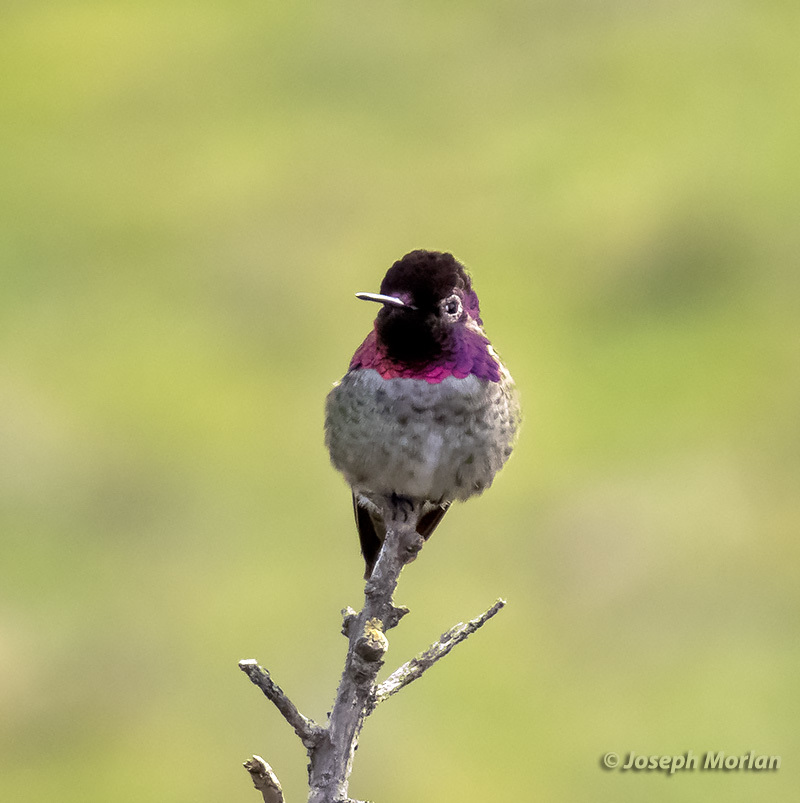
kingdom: Animalia
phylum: Chordata
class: Aves
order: Apodiformes
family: Trochilidae
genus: Calypte
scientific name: Calypte anna
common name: Anna's hummingbird
